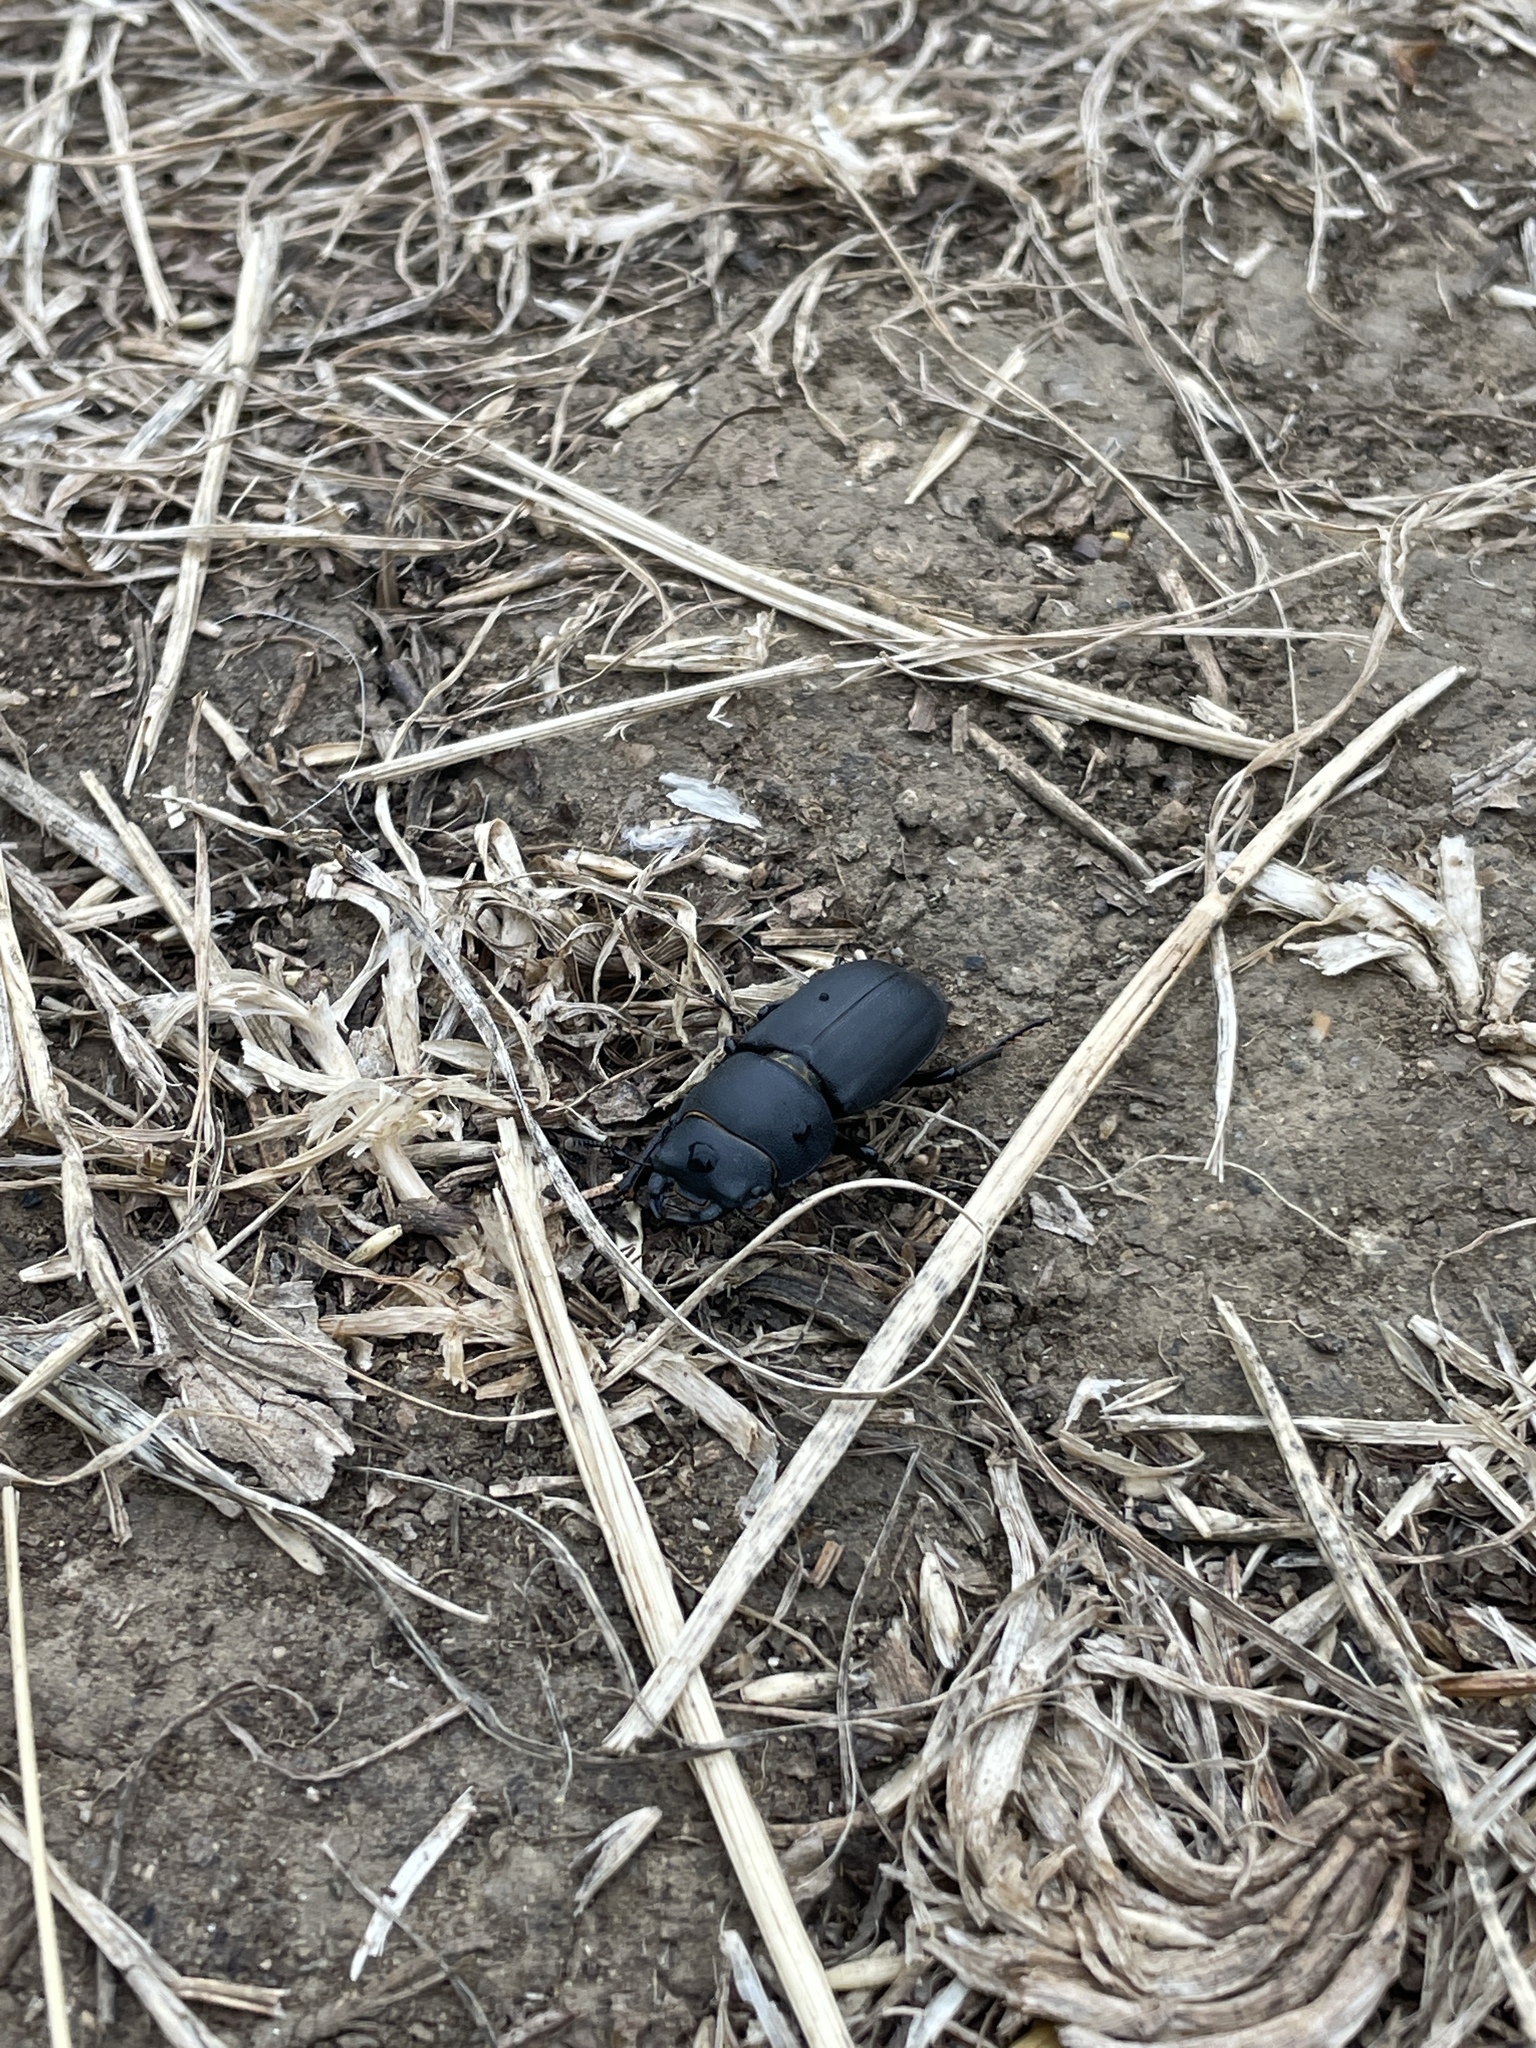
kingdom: Animalia
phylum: Arthropoda
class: Insecta
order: Coleoptera
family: Lucanidae
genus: Dorcus
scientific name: Dorcus parallelipipedus
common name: Lesser stag beetle
